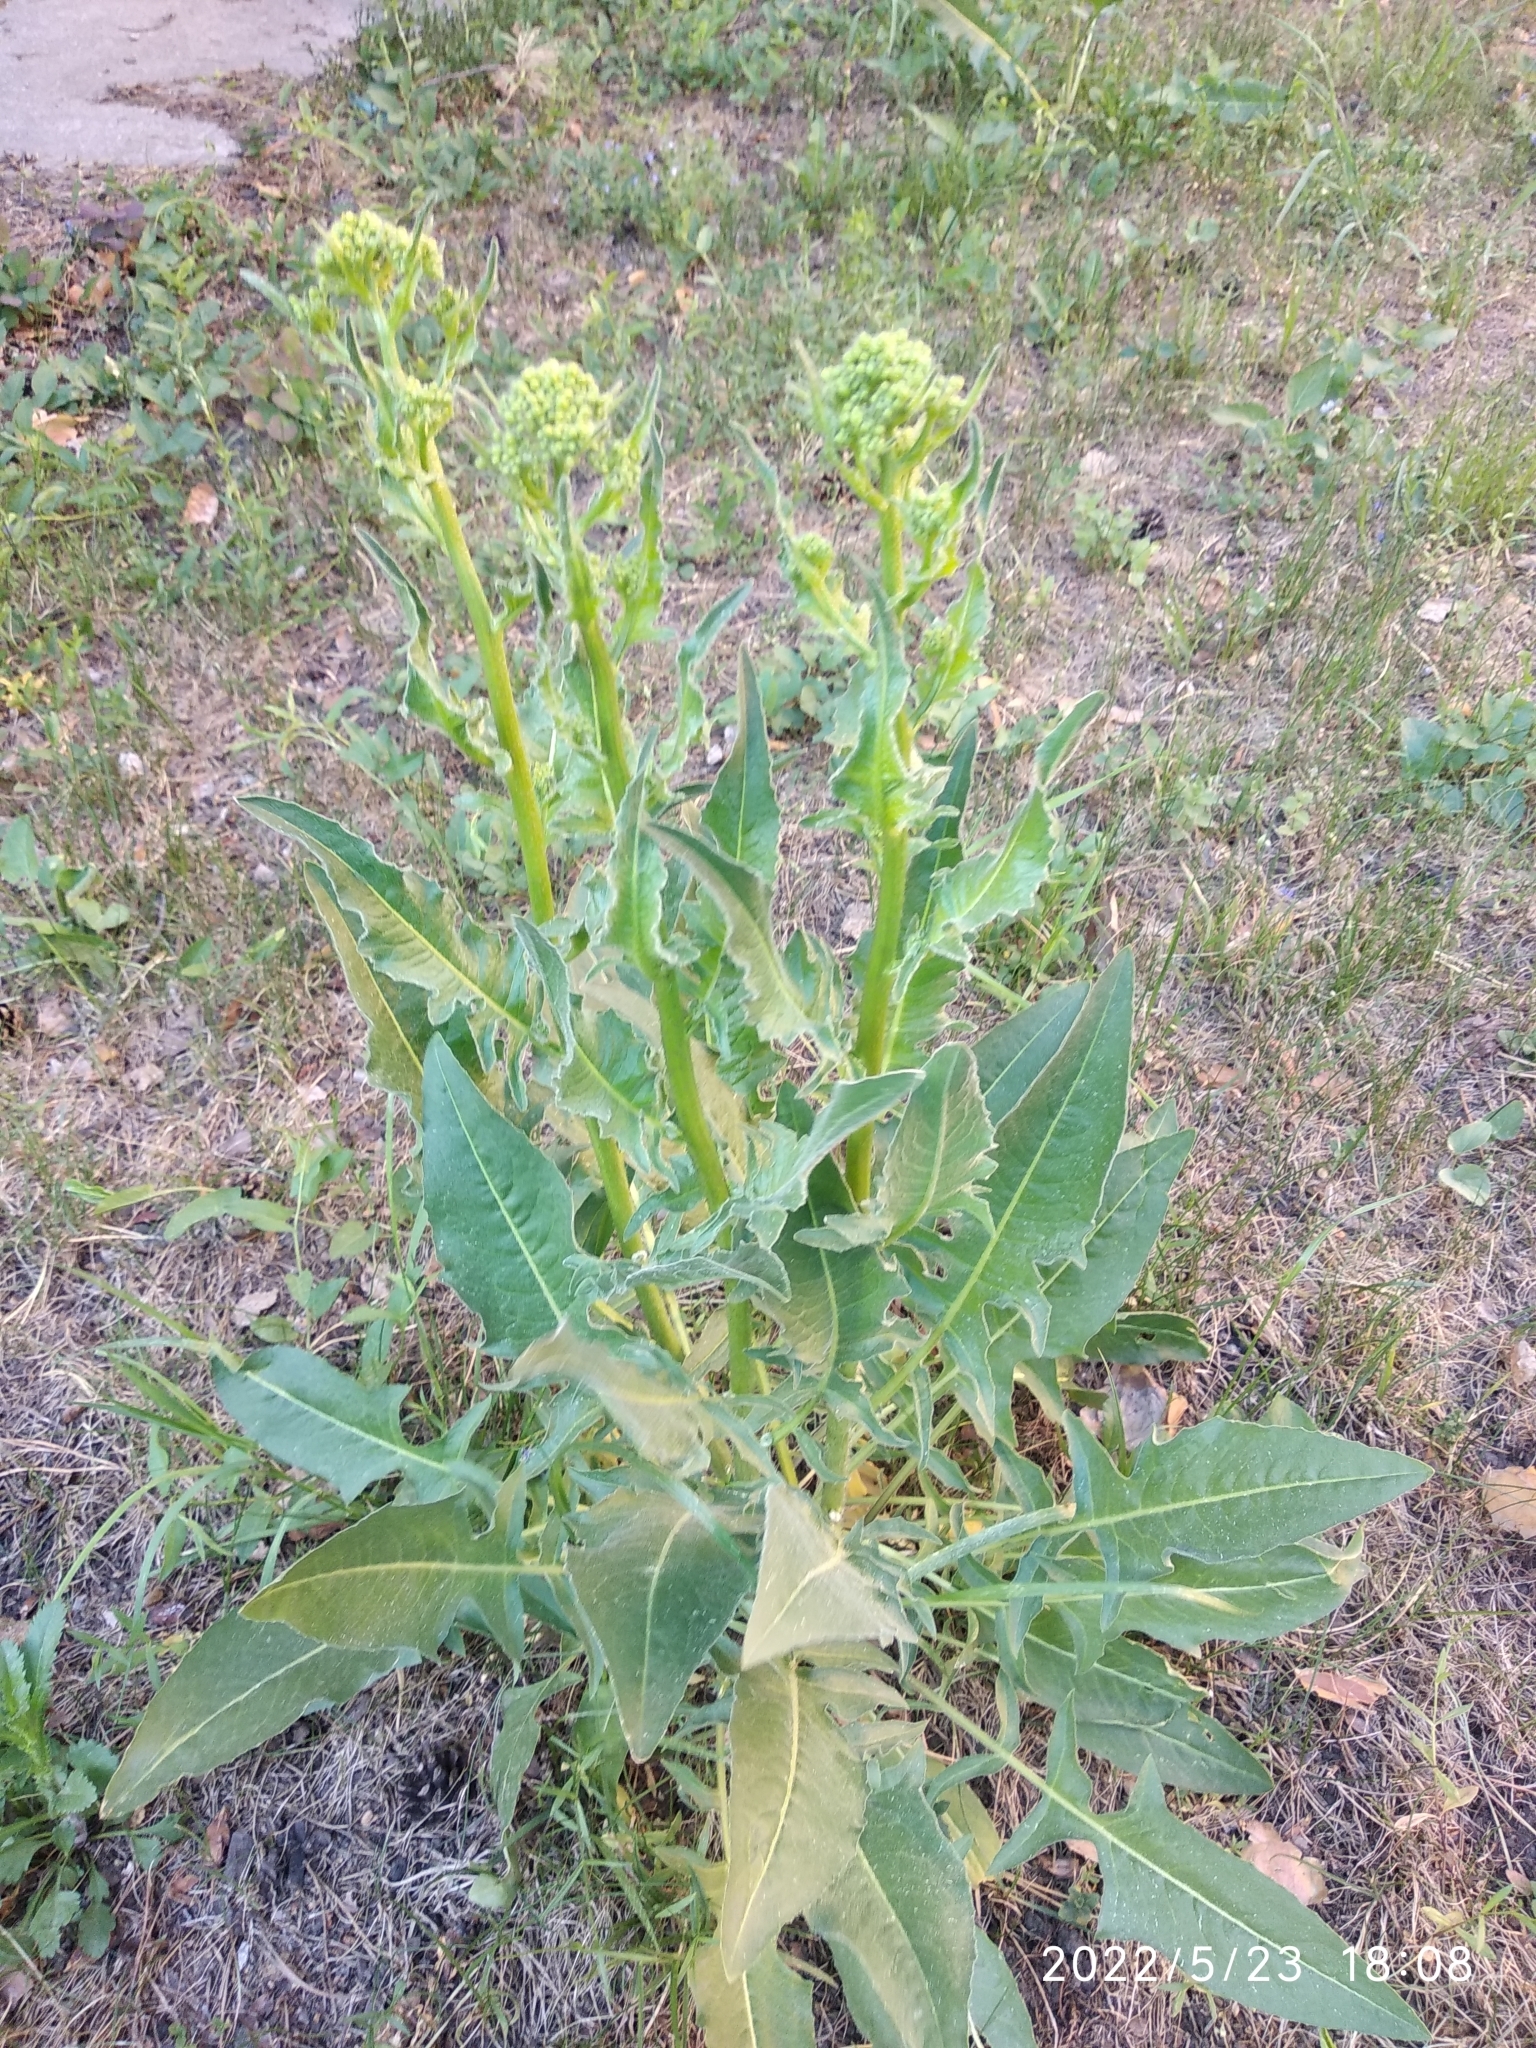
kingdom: Plantae
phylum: Tracheophyta
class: Magnoliopsida
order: Brassicales
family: Brassicaceae
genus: Bunias
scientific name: Bunias orientalis
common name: Warty-cabbage
